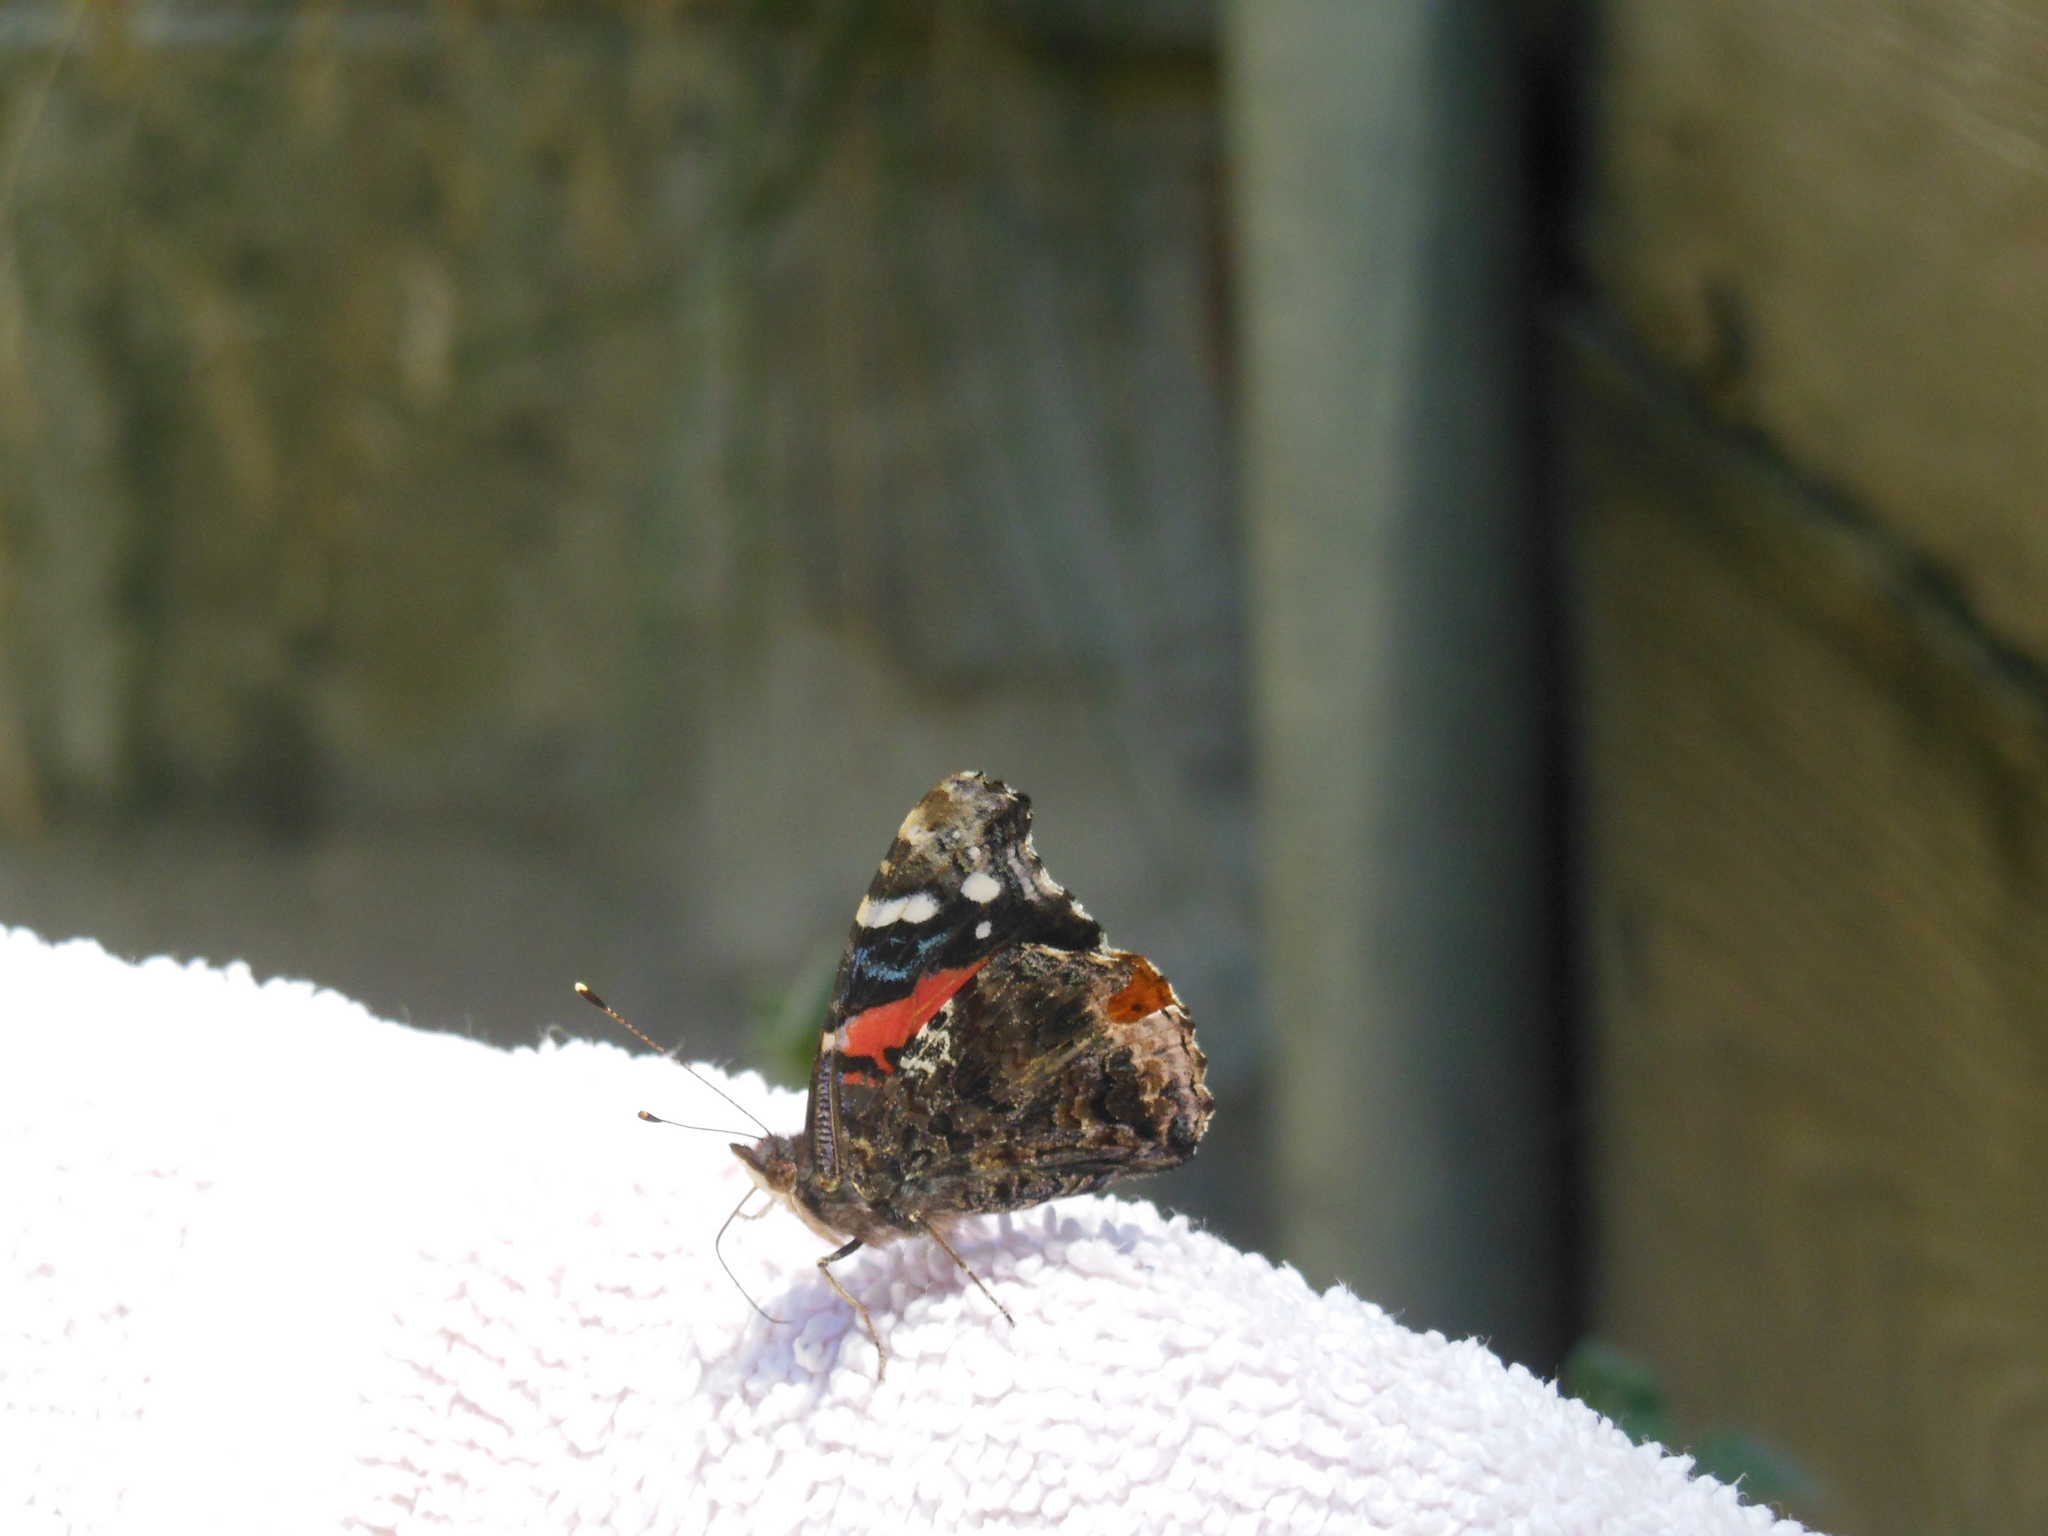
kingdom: Animalia
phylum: Arthropoda
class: Insecta
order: Lepidoptera
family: Nymphalidae
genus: Vanessa
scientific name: Vanessa atalanta
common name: Red admiral
